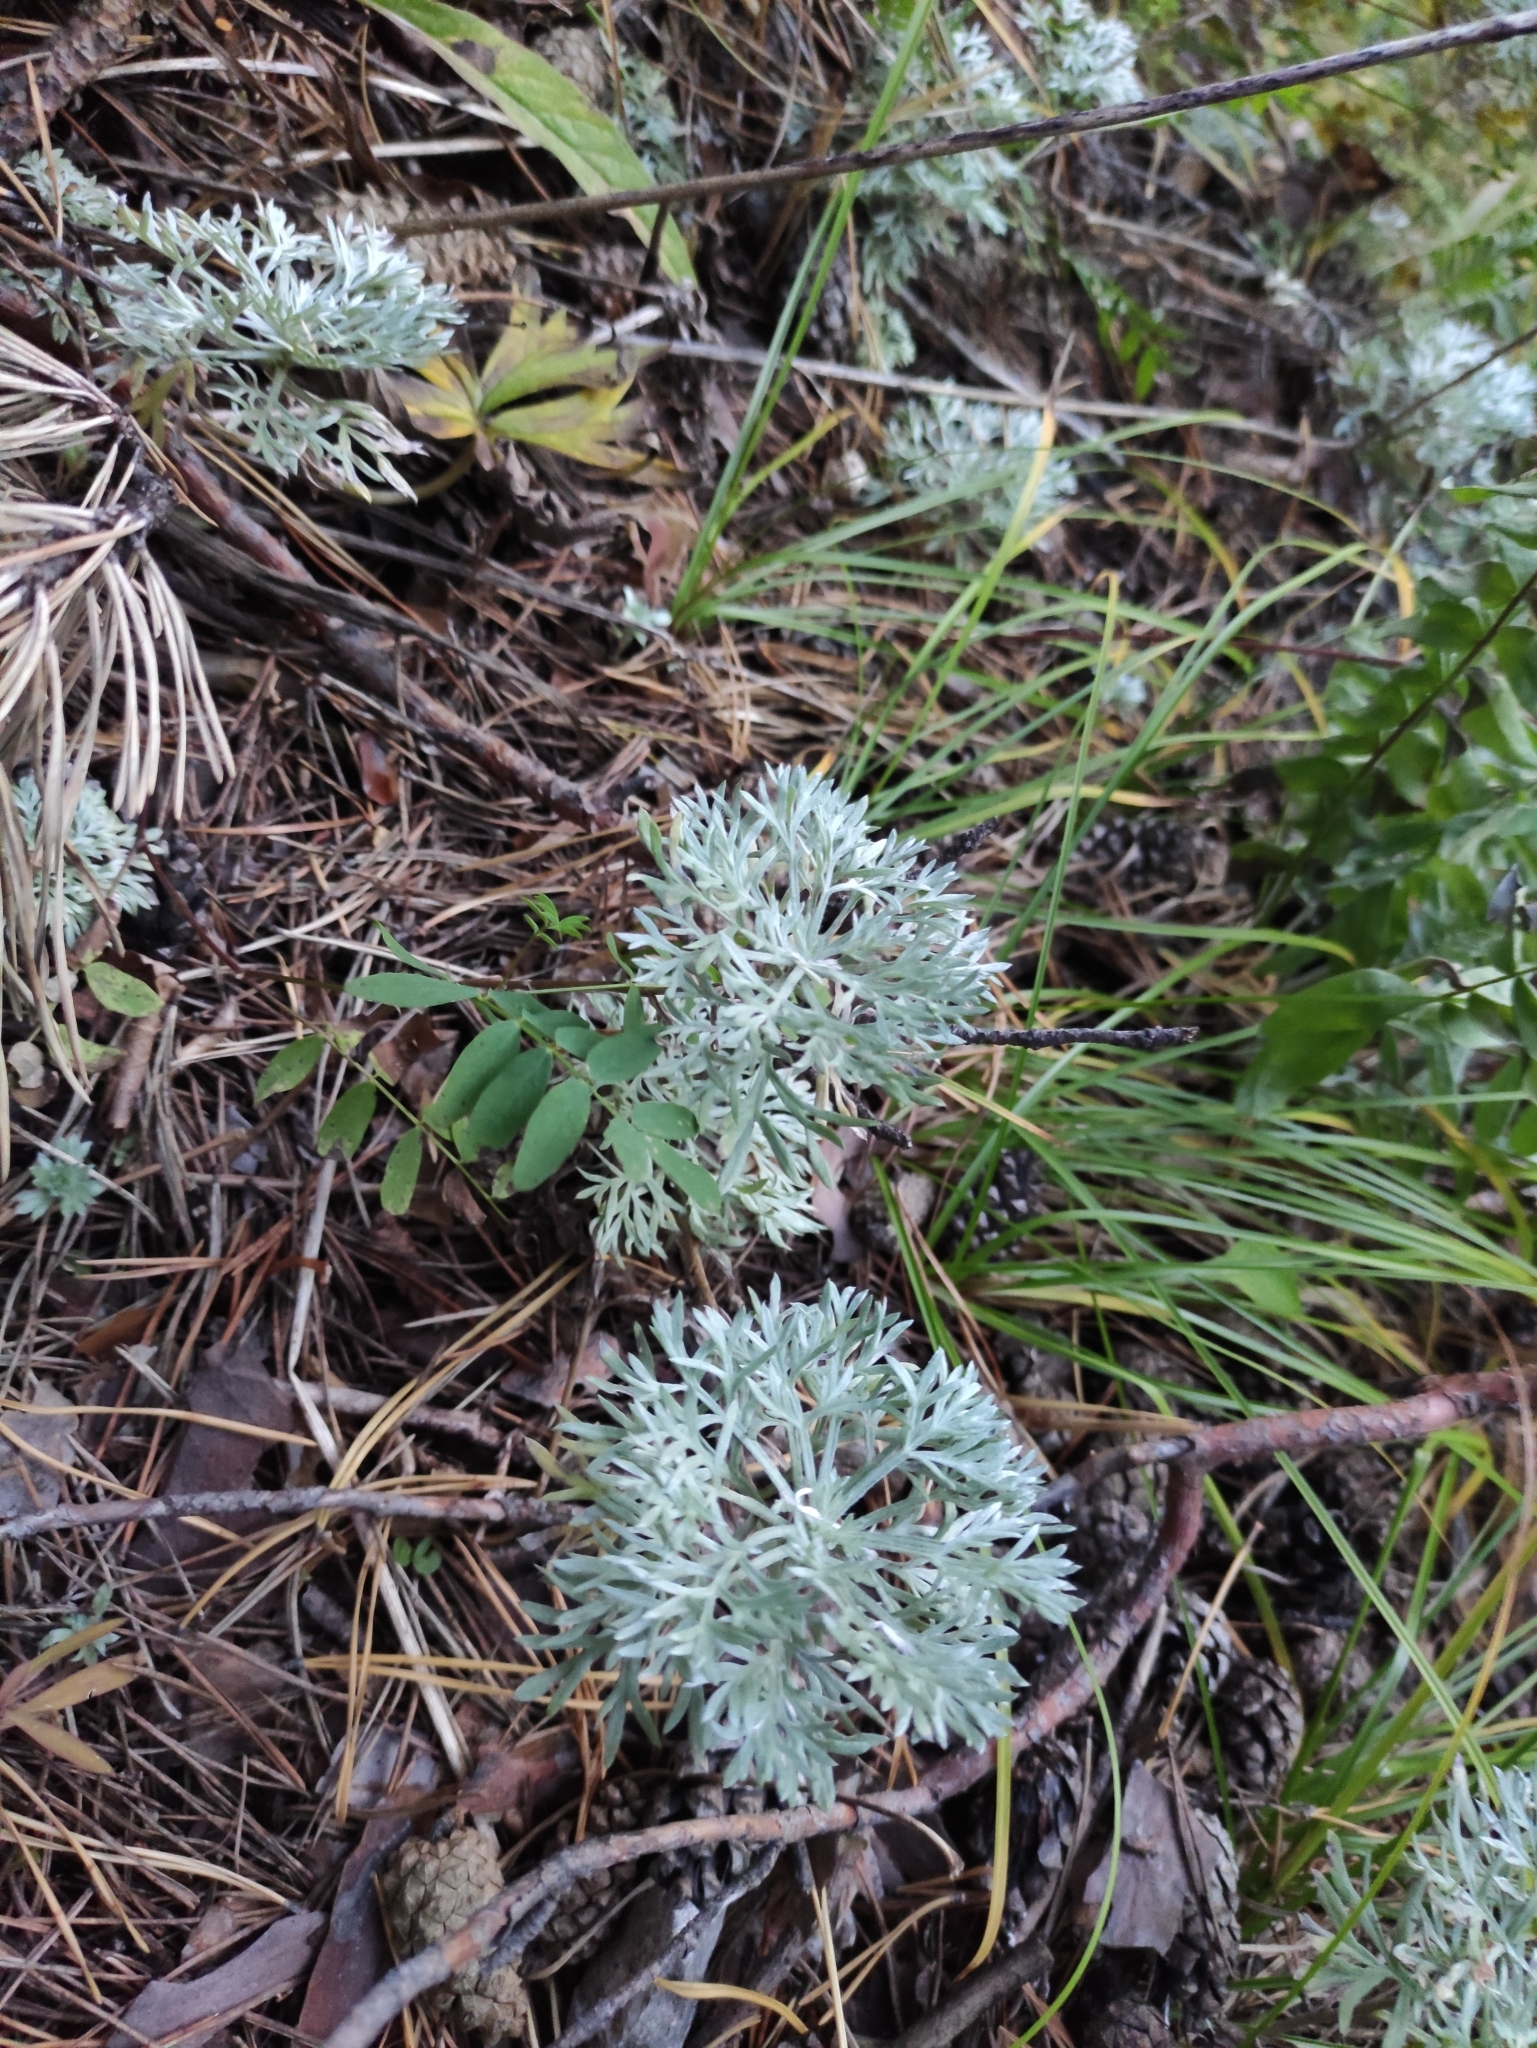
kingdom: Plantae
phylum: Tracheophyta
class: Magnoliopsida
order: Asterales
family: Asteraceae
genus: Artemisia
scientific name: Artemisia sericea
